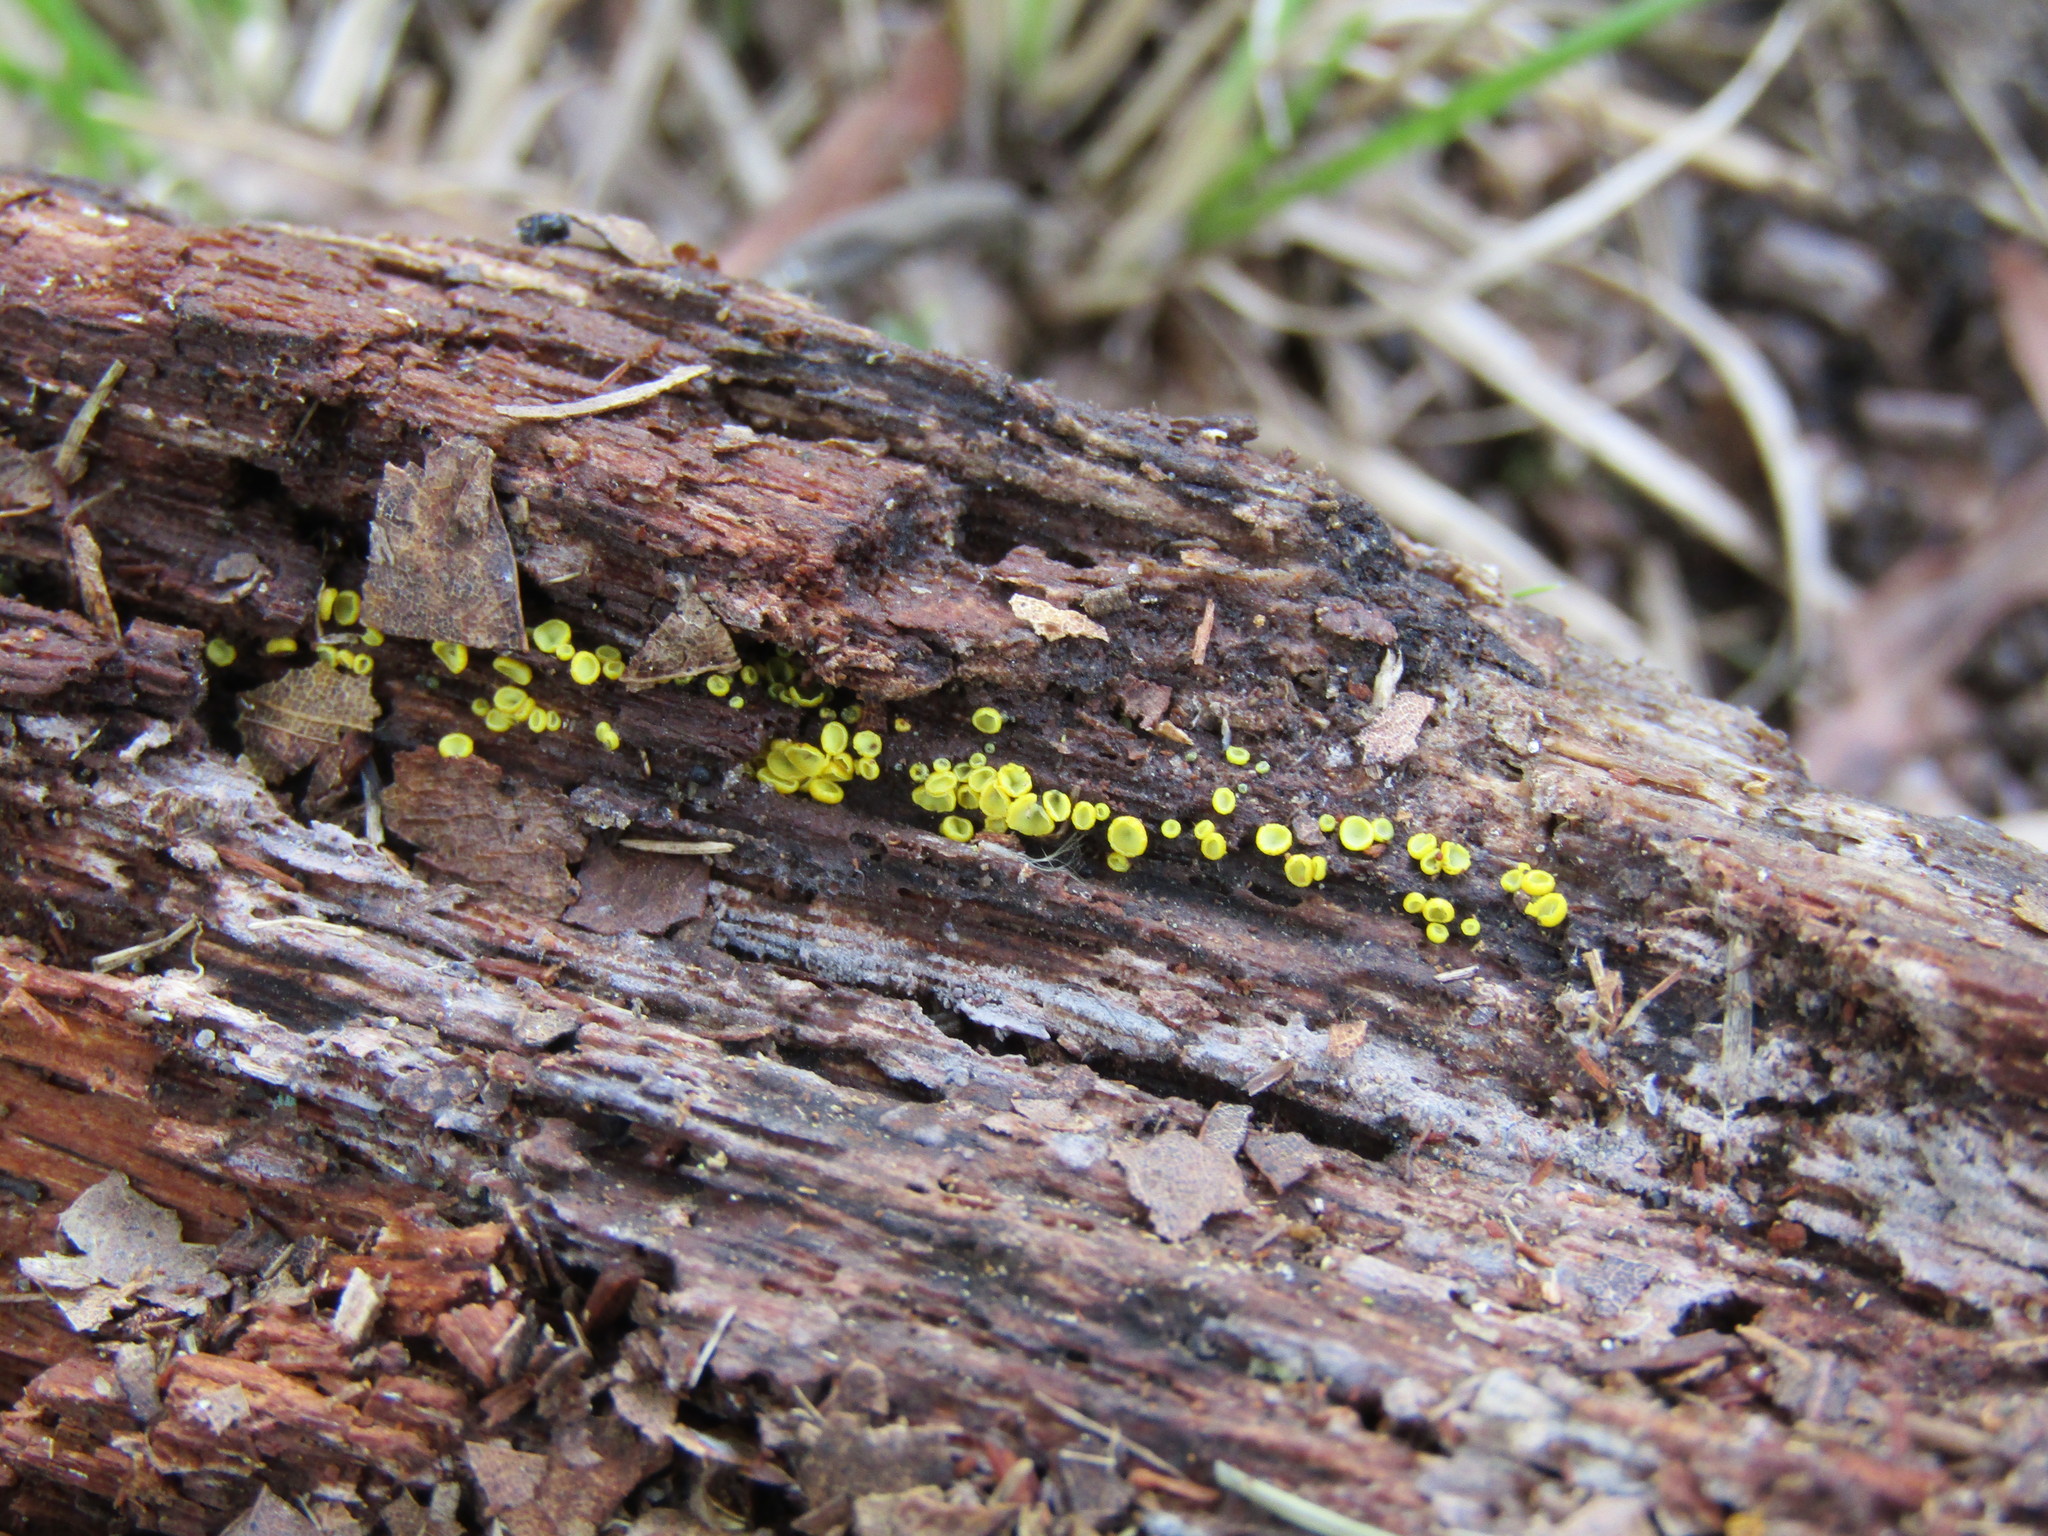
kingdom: Fungi
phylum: Ascomycota
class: Leotiomycetes
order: Helotiales
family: Chlorospleniaceae
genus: Chlorosplenium
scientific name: Chlorosplenium chlora
